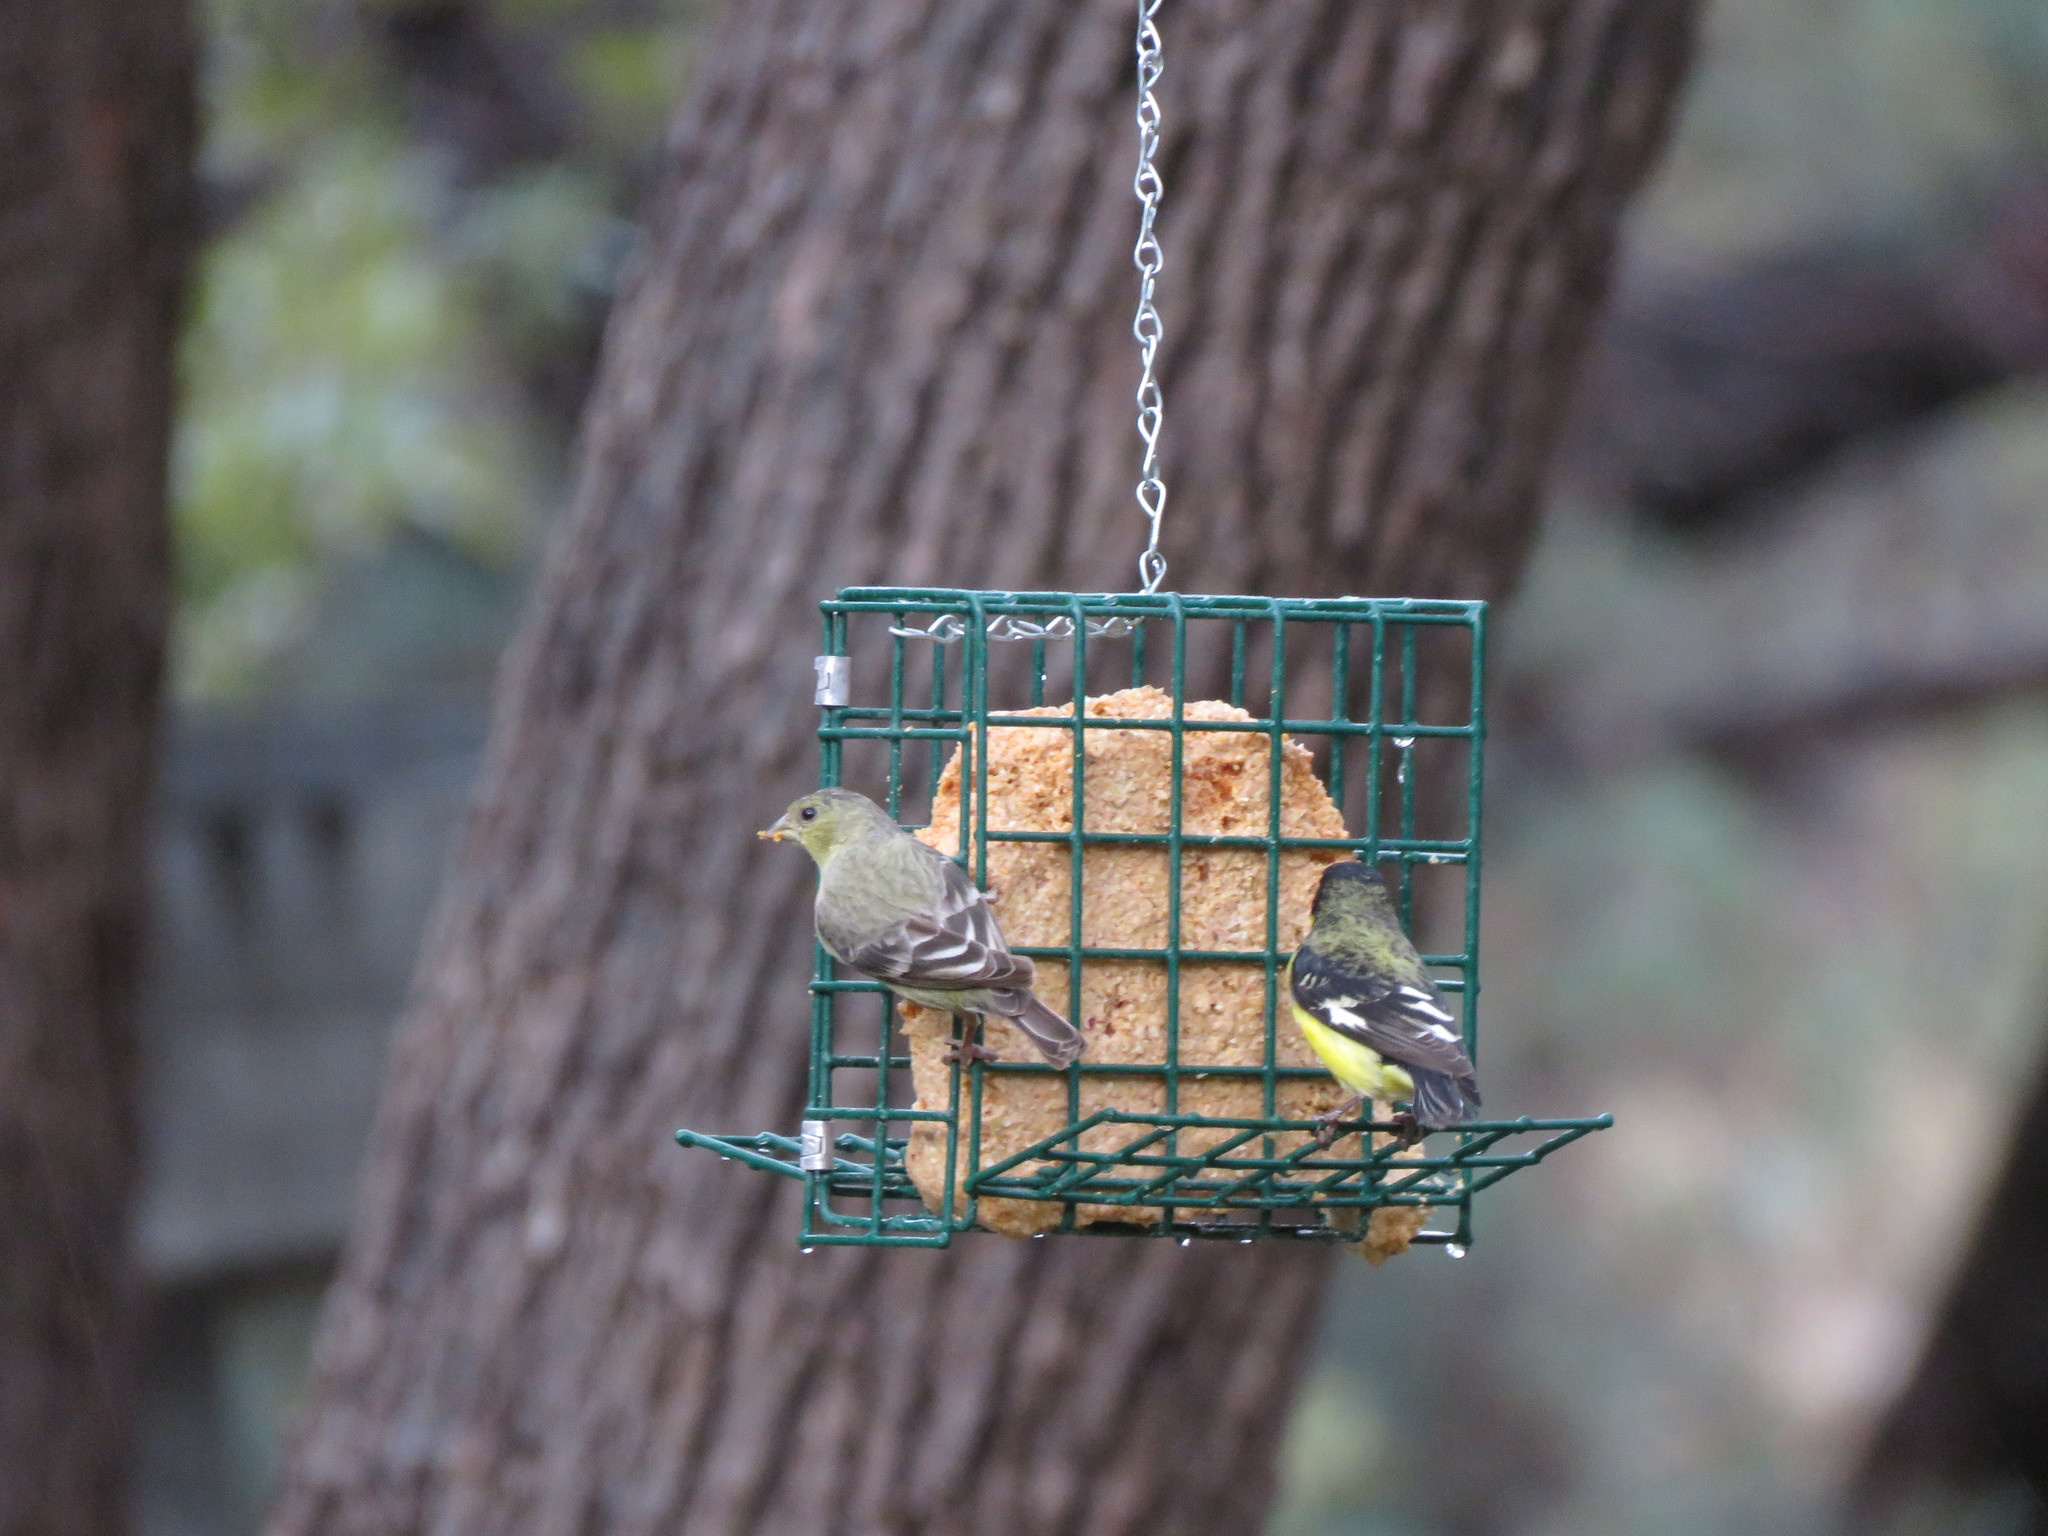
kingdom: Animalia
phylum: Chordata
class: Aves
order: Passeriformes
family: Fringillidae
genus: Spinus
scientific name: Spinus psaltria
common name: Lesser goldfinch
